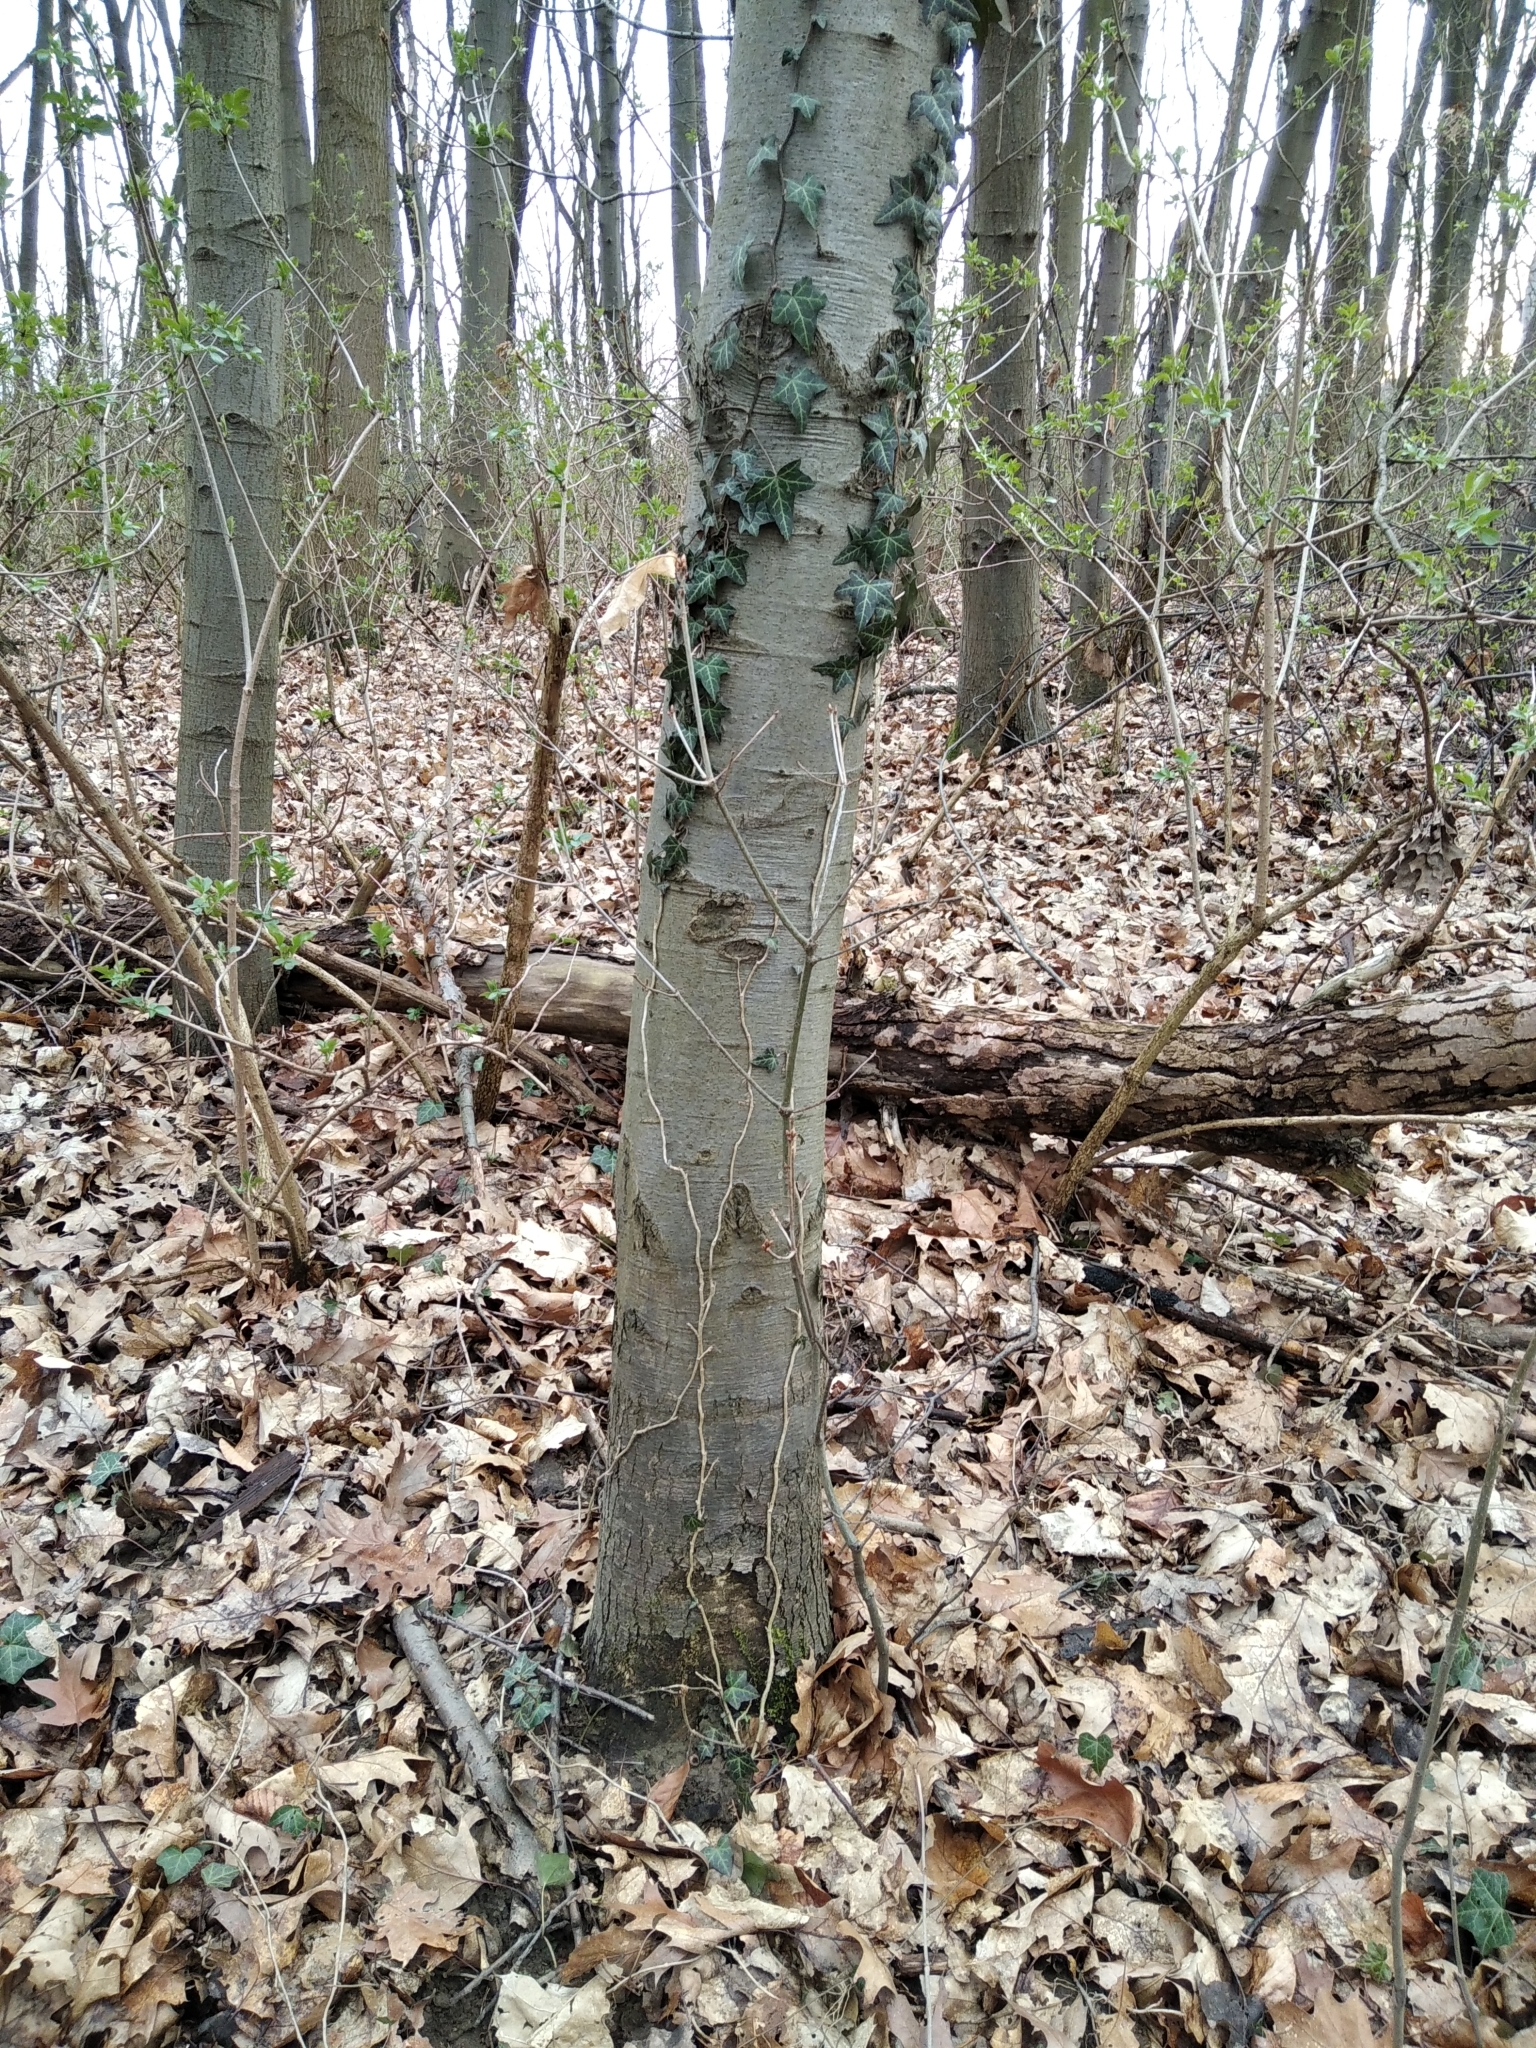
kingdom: Plantae
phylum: Tracheophyta
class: Magnoliopsida
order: Apiales
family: Araliaceae
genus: Hedera
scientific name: Hedera helix
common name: Ivy
